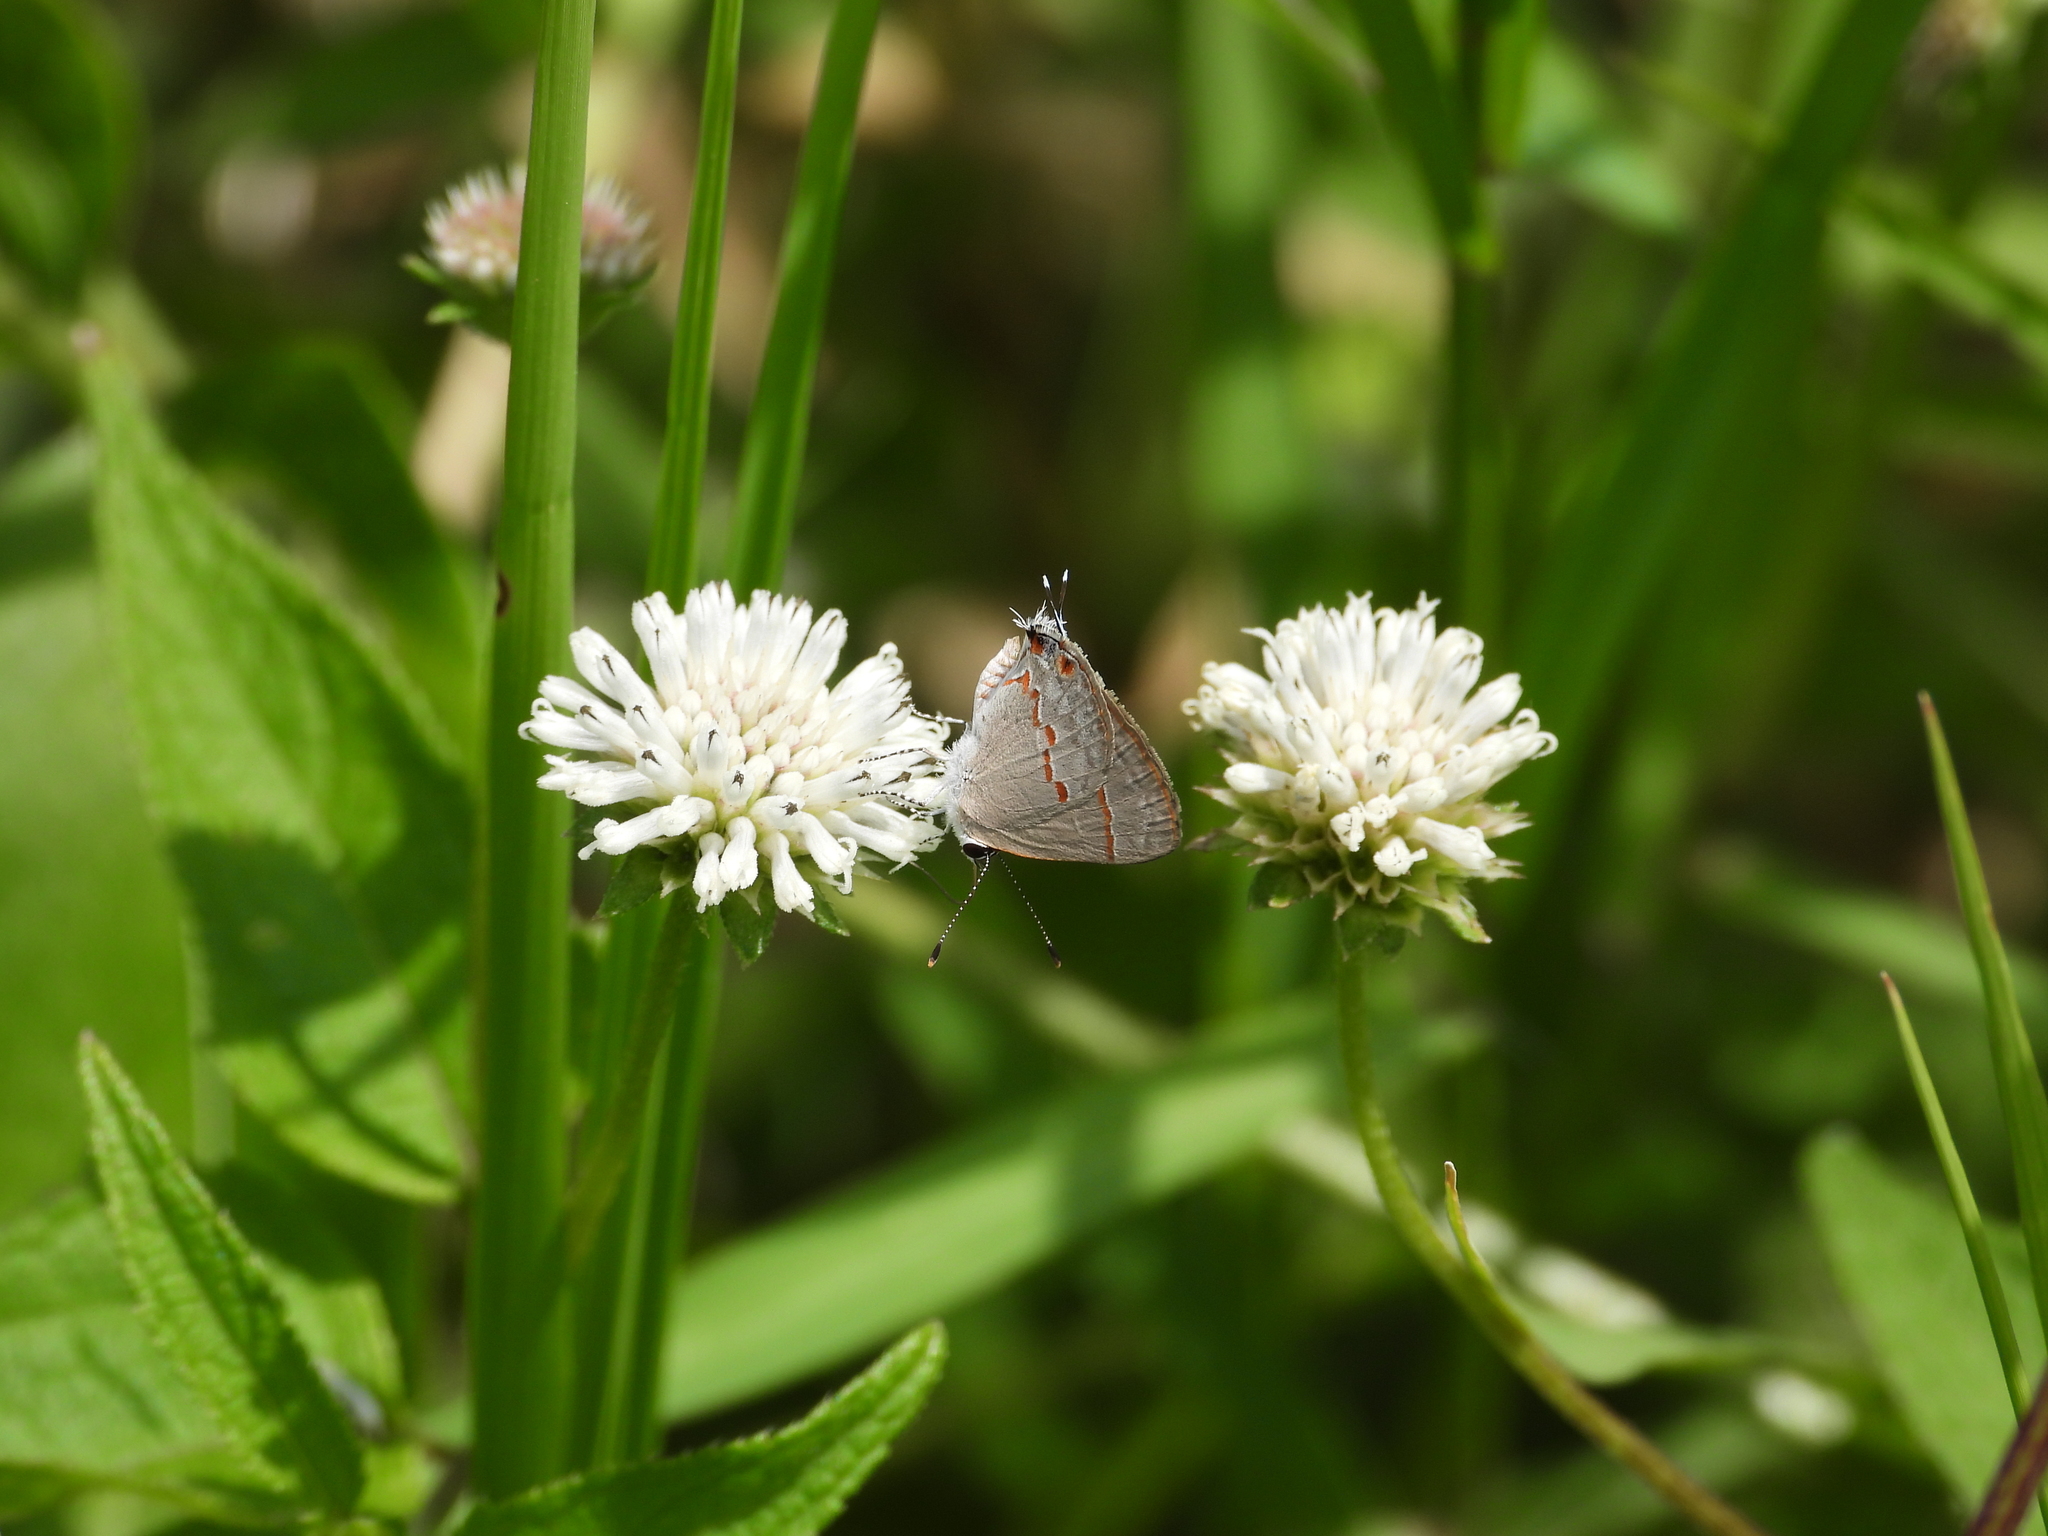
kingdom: Animalia
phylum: Arthropoda
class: Insecta
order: Lepidoptera
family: Lycaenidae
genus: Thecla
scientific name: Thecla azia
